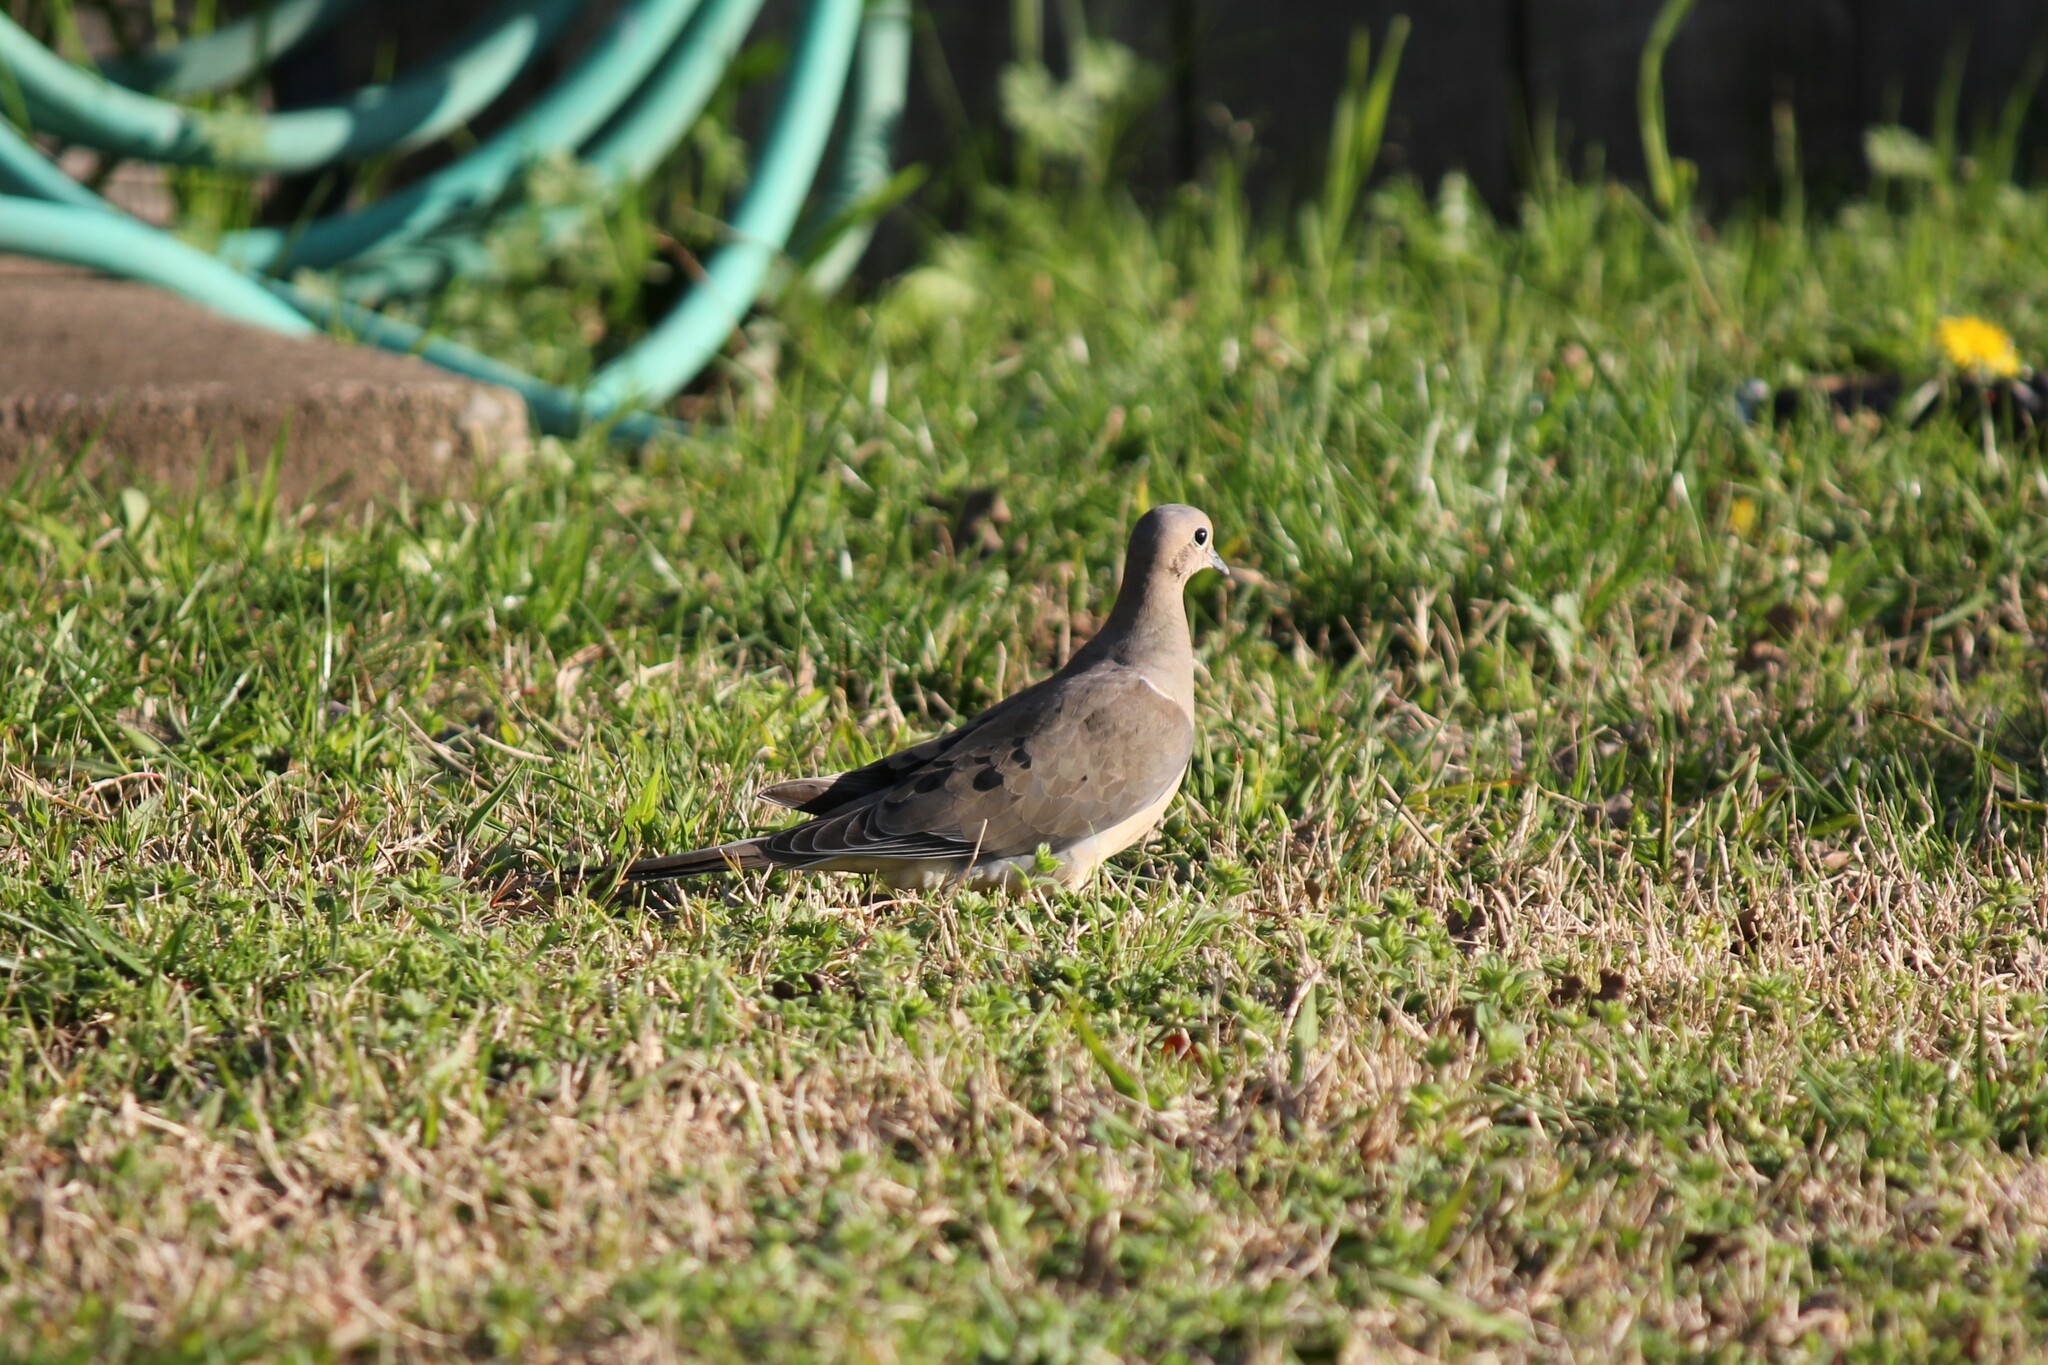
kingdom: Animalia
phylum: Chordata
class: Aves
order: Columbiformes
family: Columbidae
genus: Zenaida
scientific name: Zenaida macroura
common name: Mourning dove
